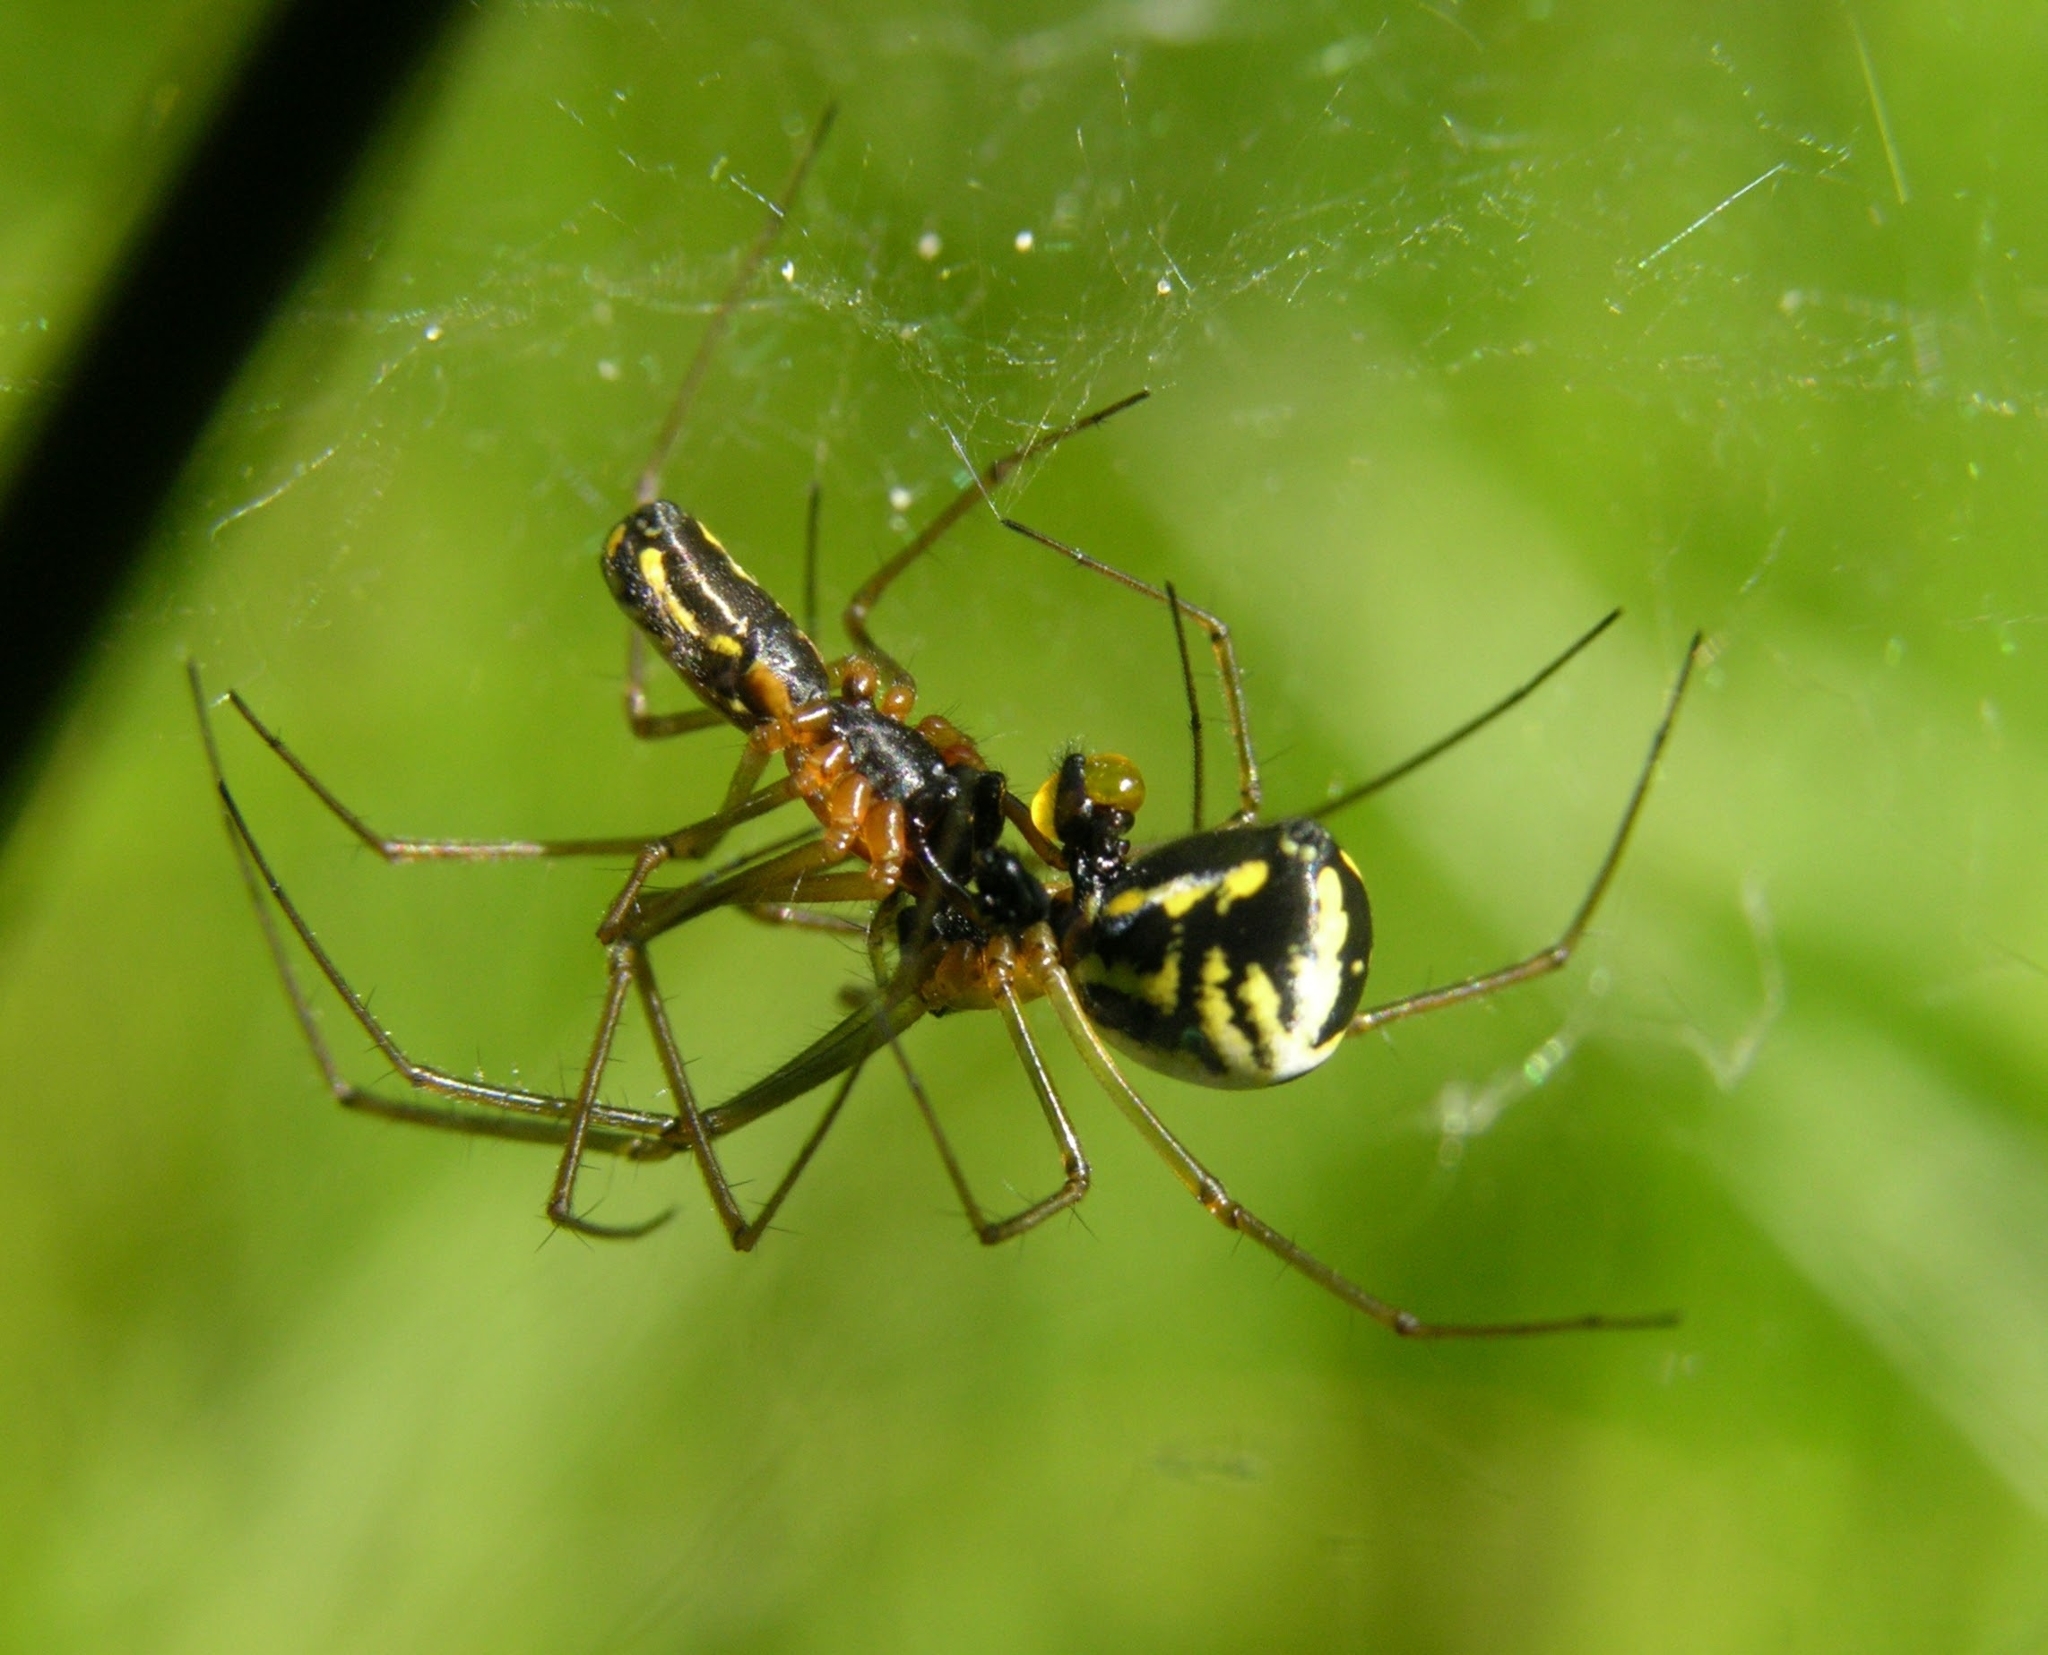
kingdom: Animalia
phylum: Arthropoda
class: Arachnida
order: Araneae
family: Linyphiidae
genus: Neriene
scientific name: Neriene radiata
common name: Filmy dome spider
